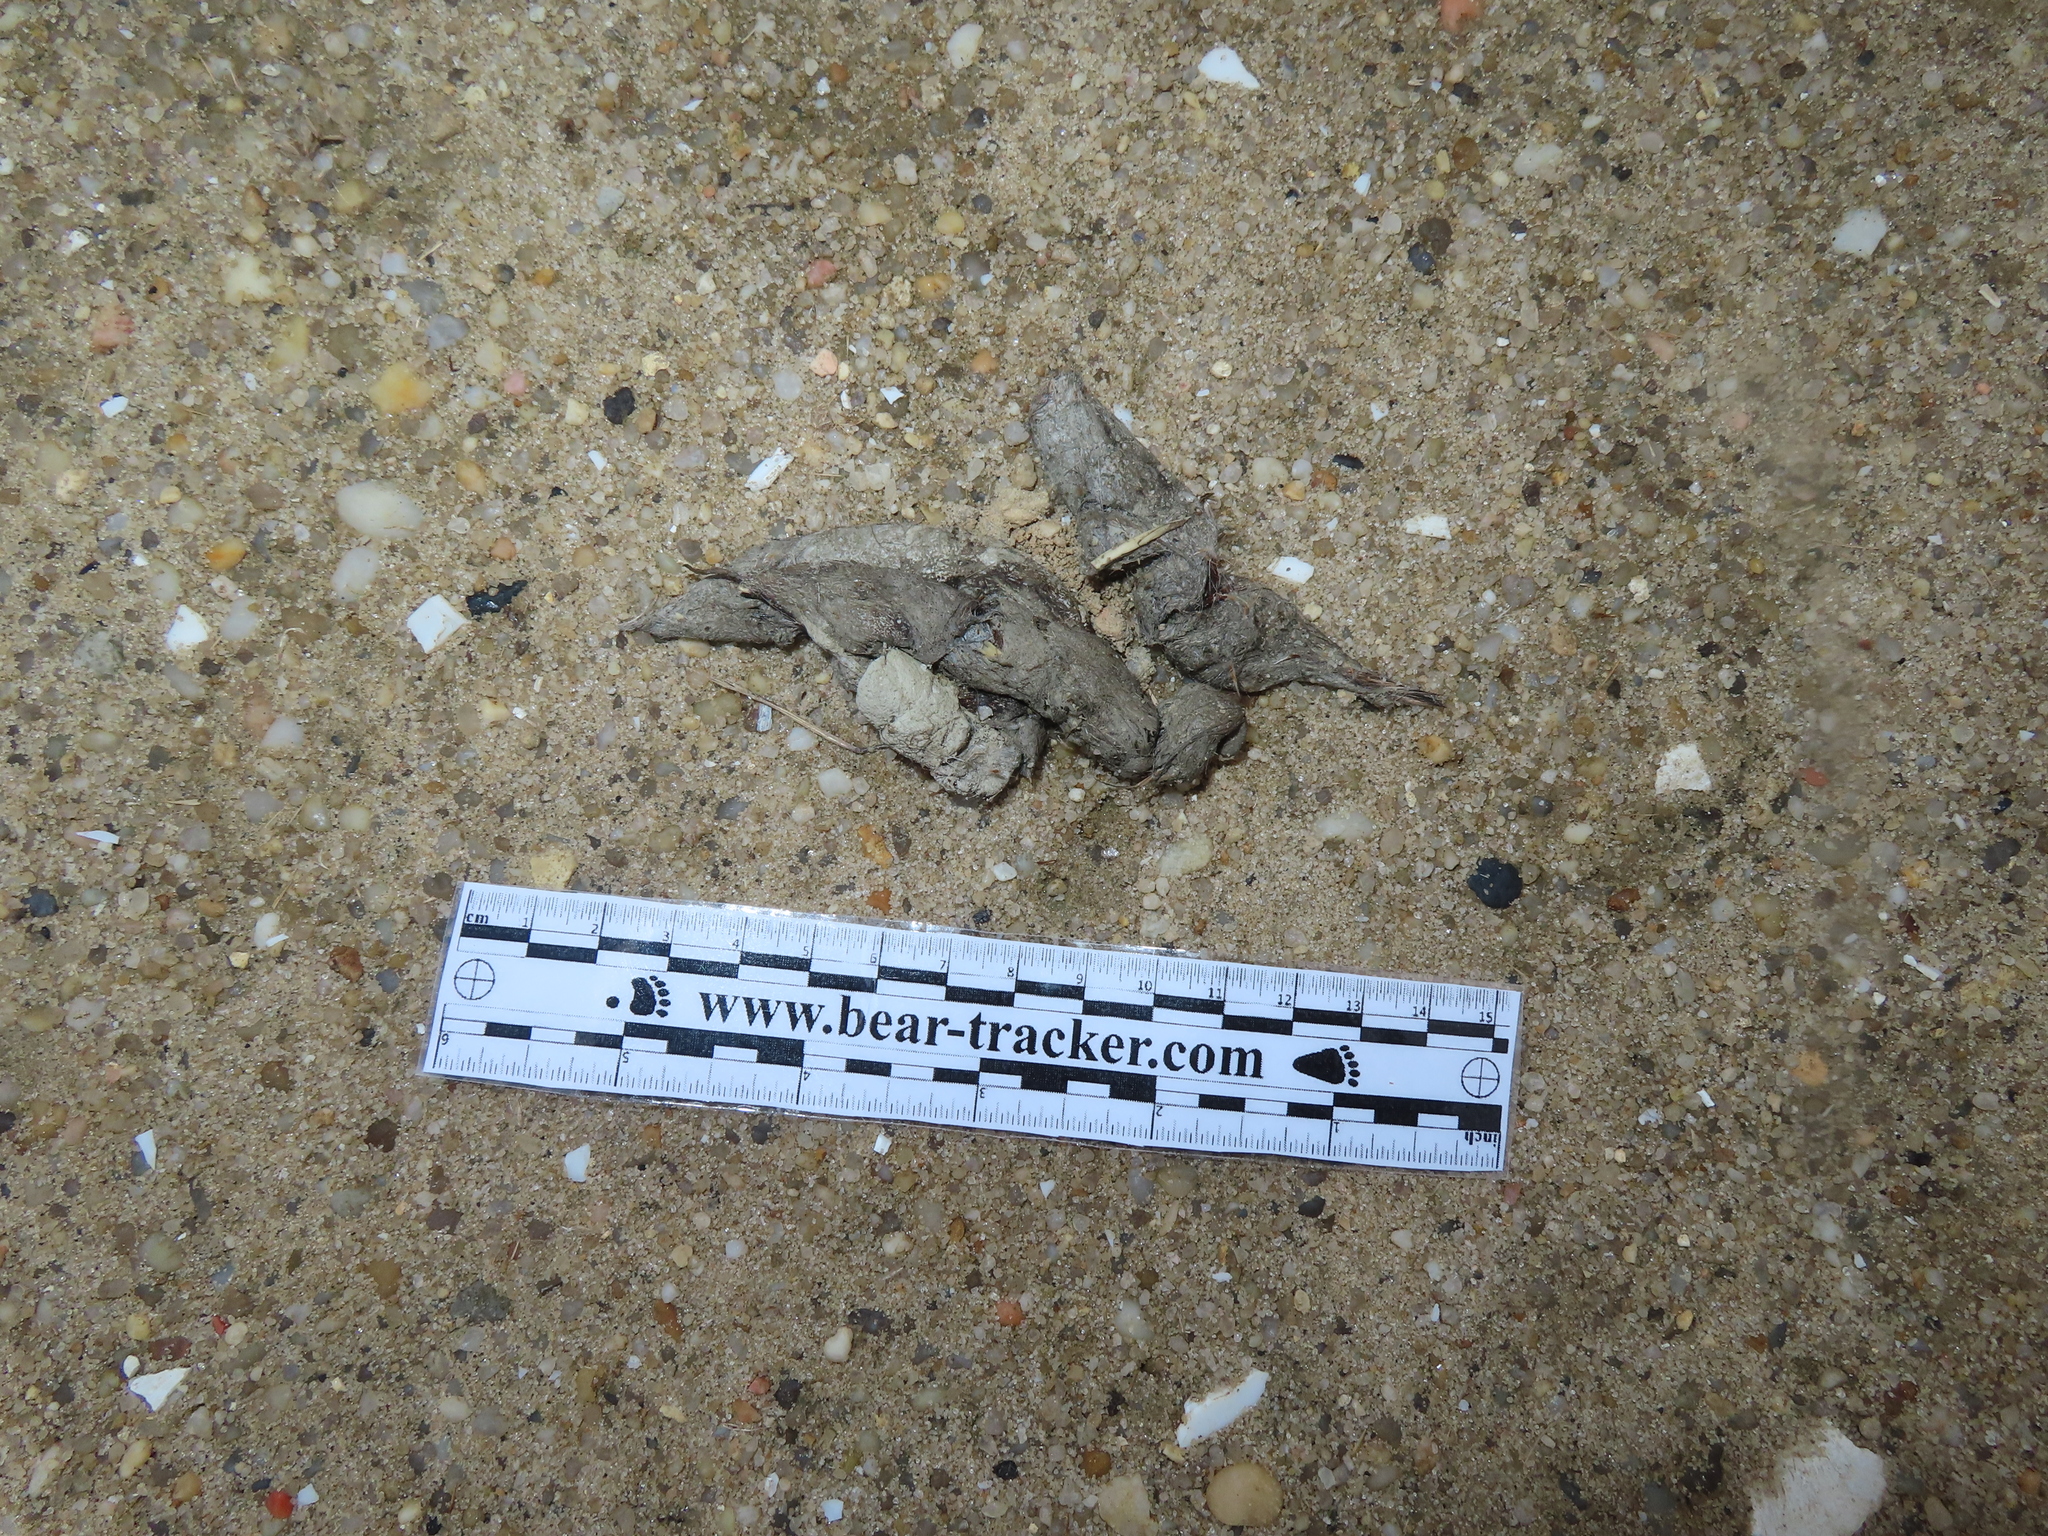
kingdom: Animalia
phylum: Chordata
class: Mammalia
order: Carnivora
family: Canidae
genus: Canis
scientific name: Canis latrans
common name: Coyote
